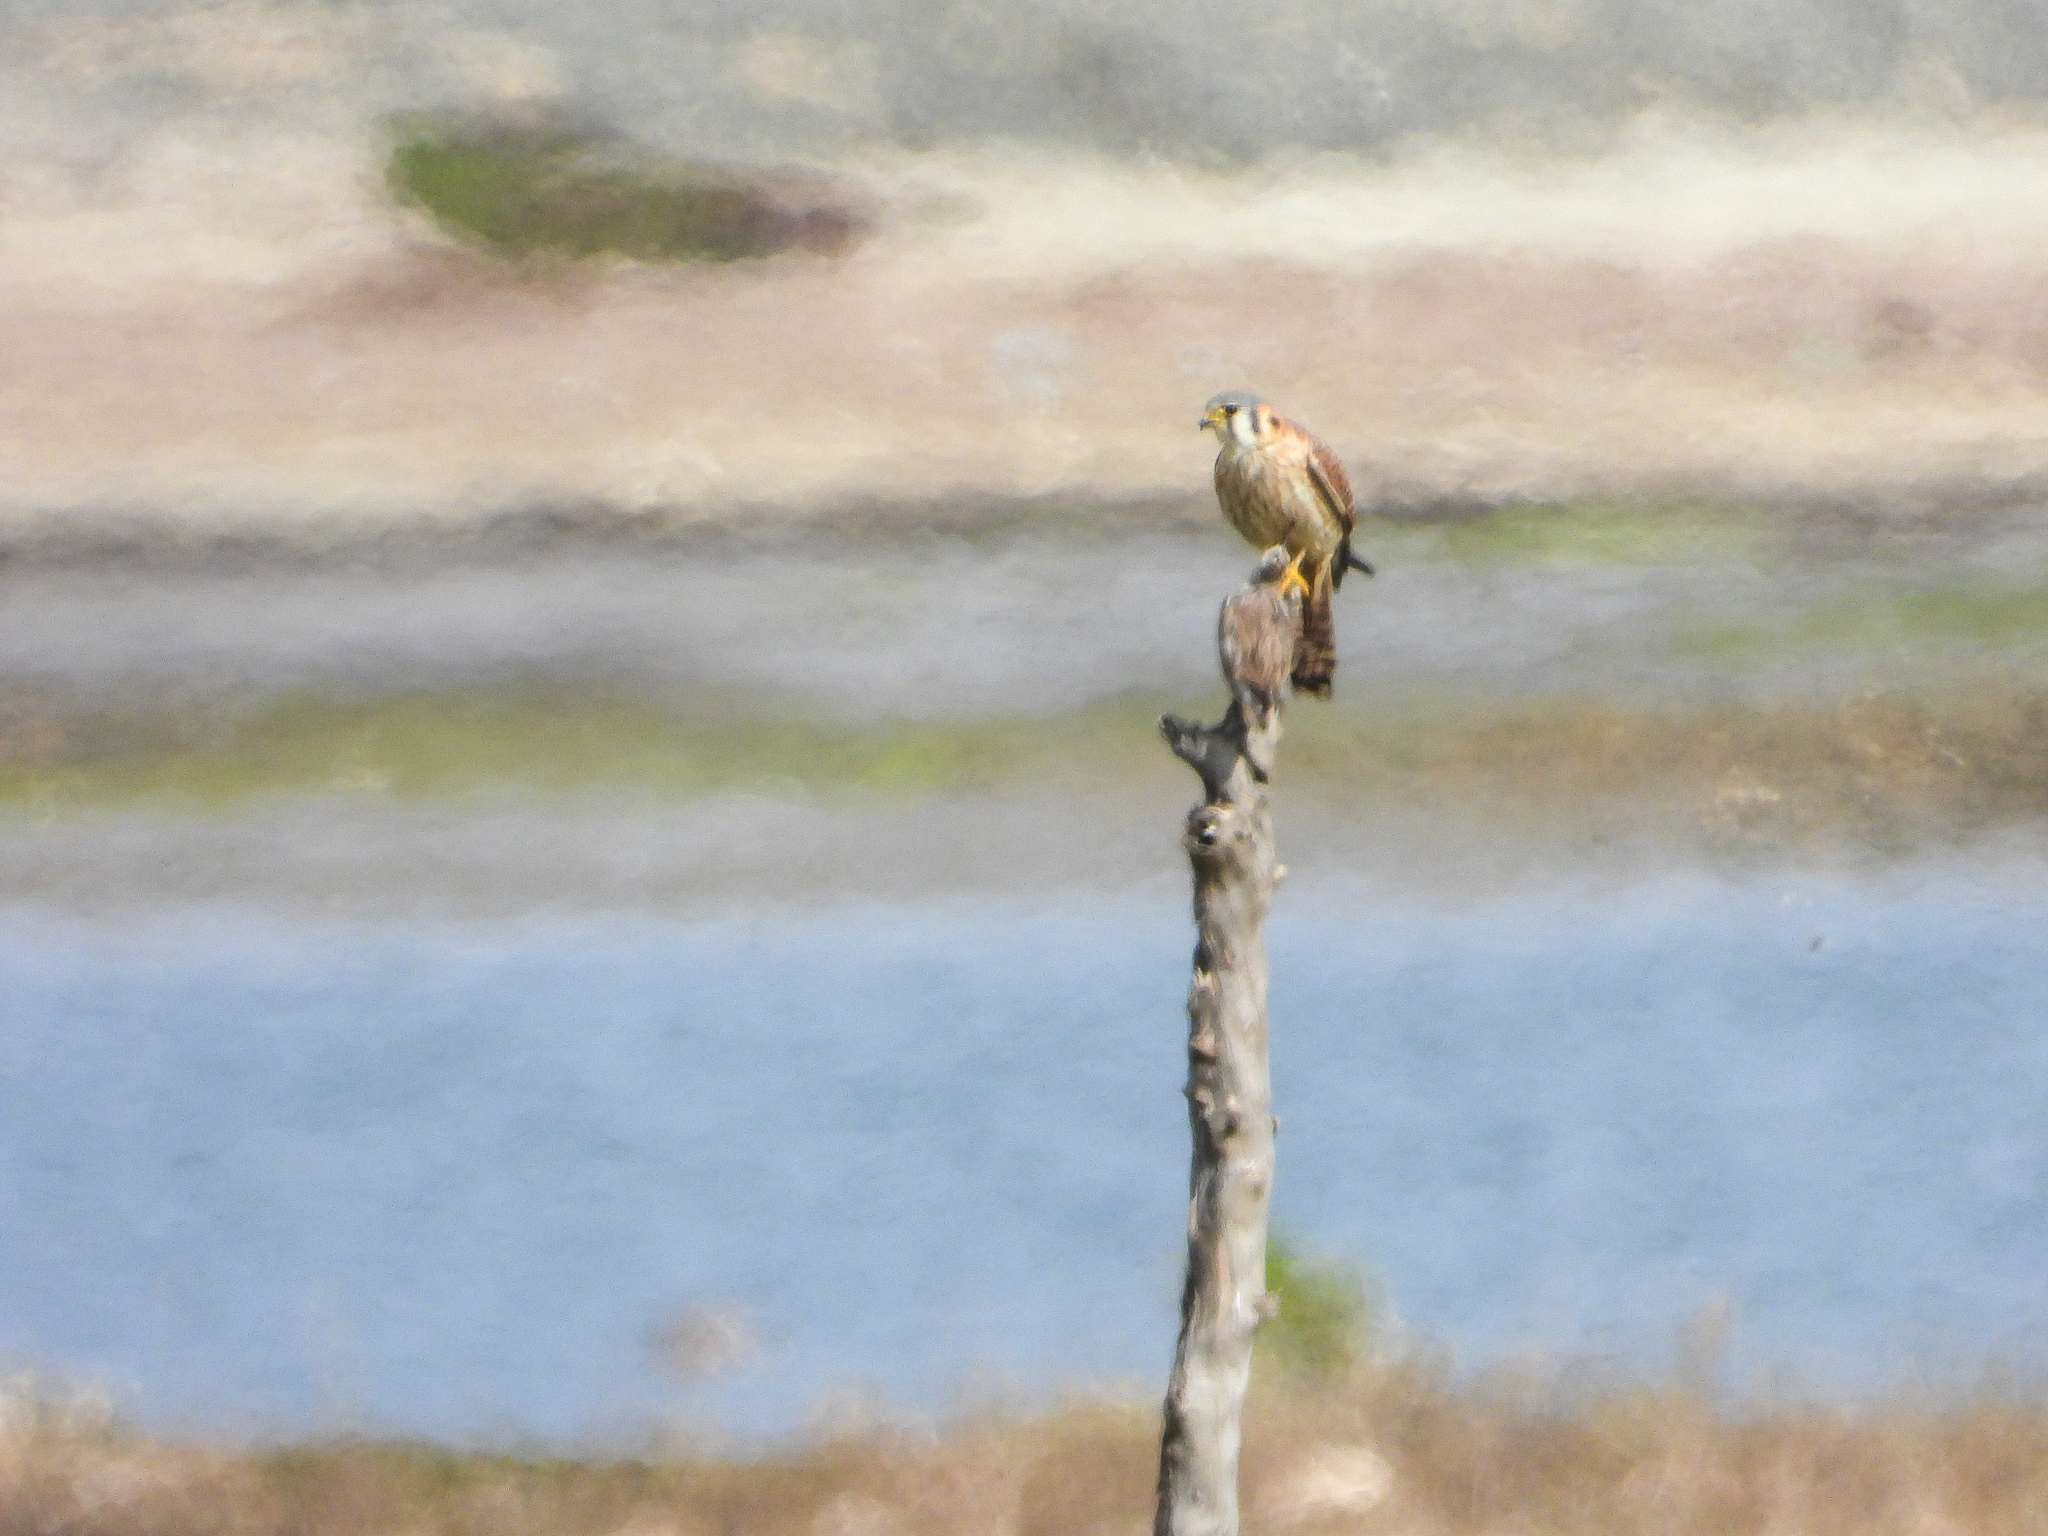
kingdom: Animalia
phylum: Chordata
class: Aves
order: Falconiformes
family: Falconidae
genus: Falco
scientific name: Falco sparverius
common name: American kestrel
